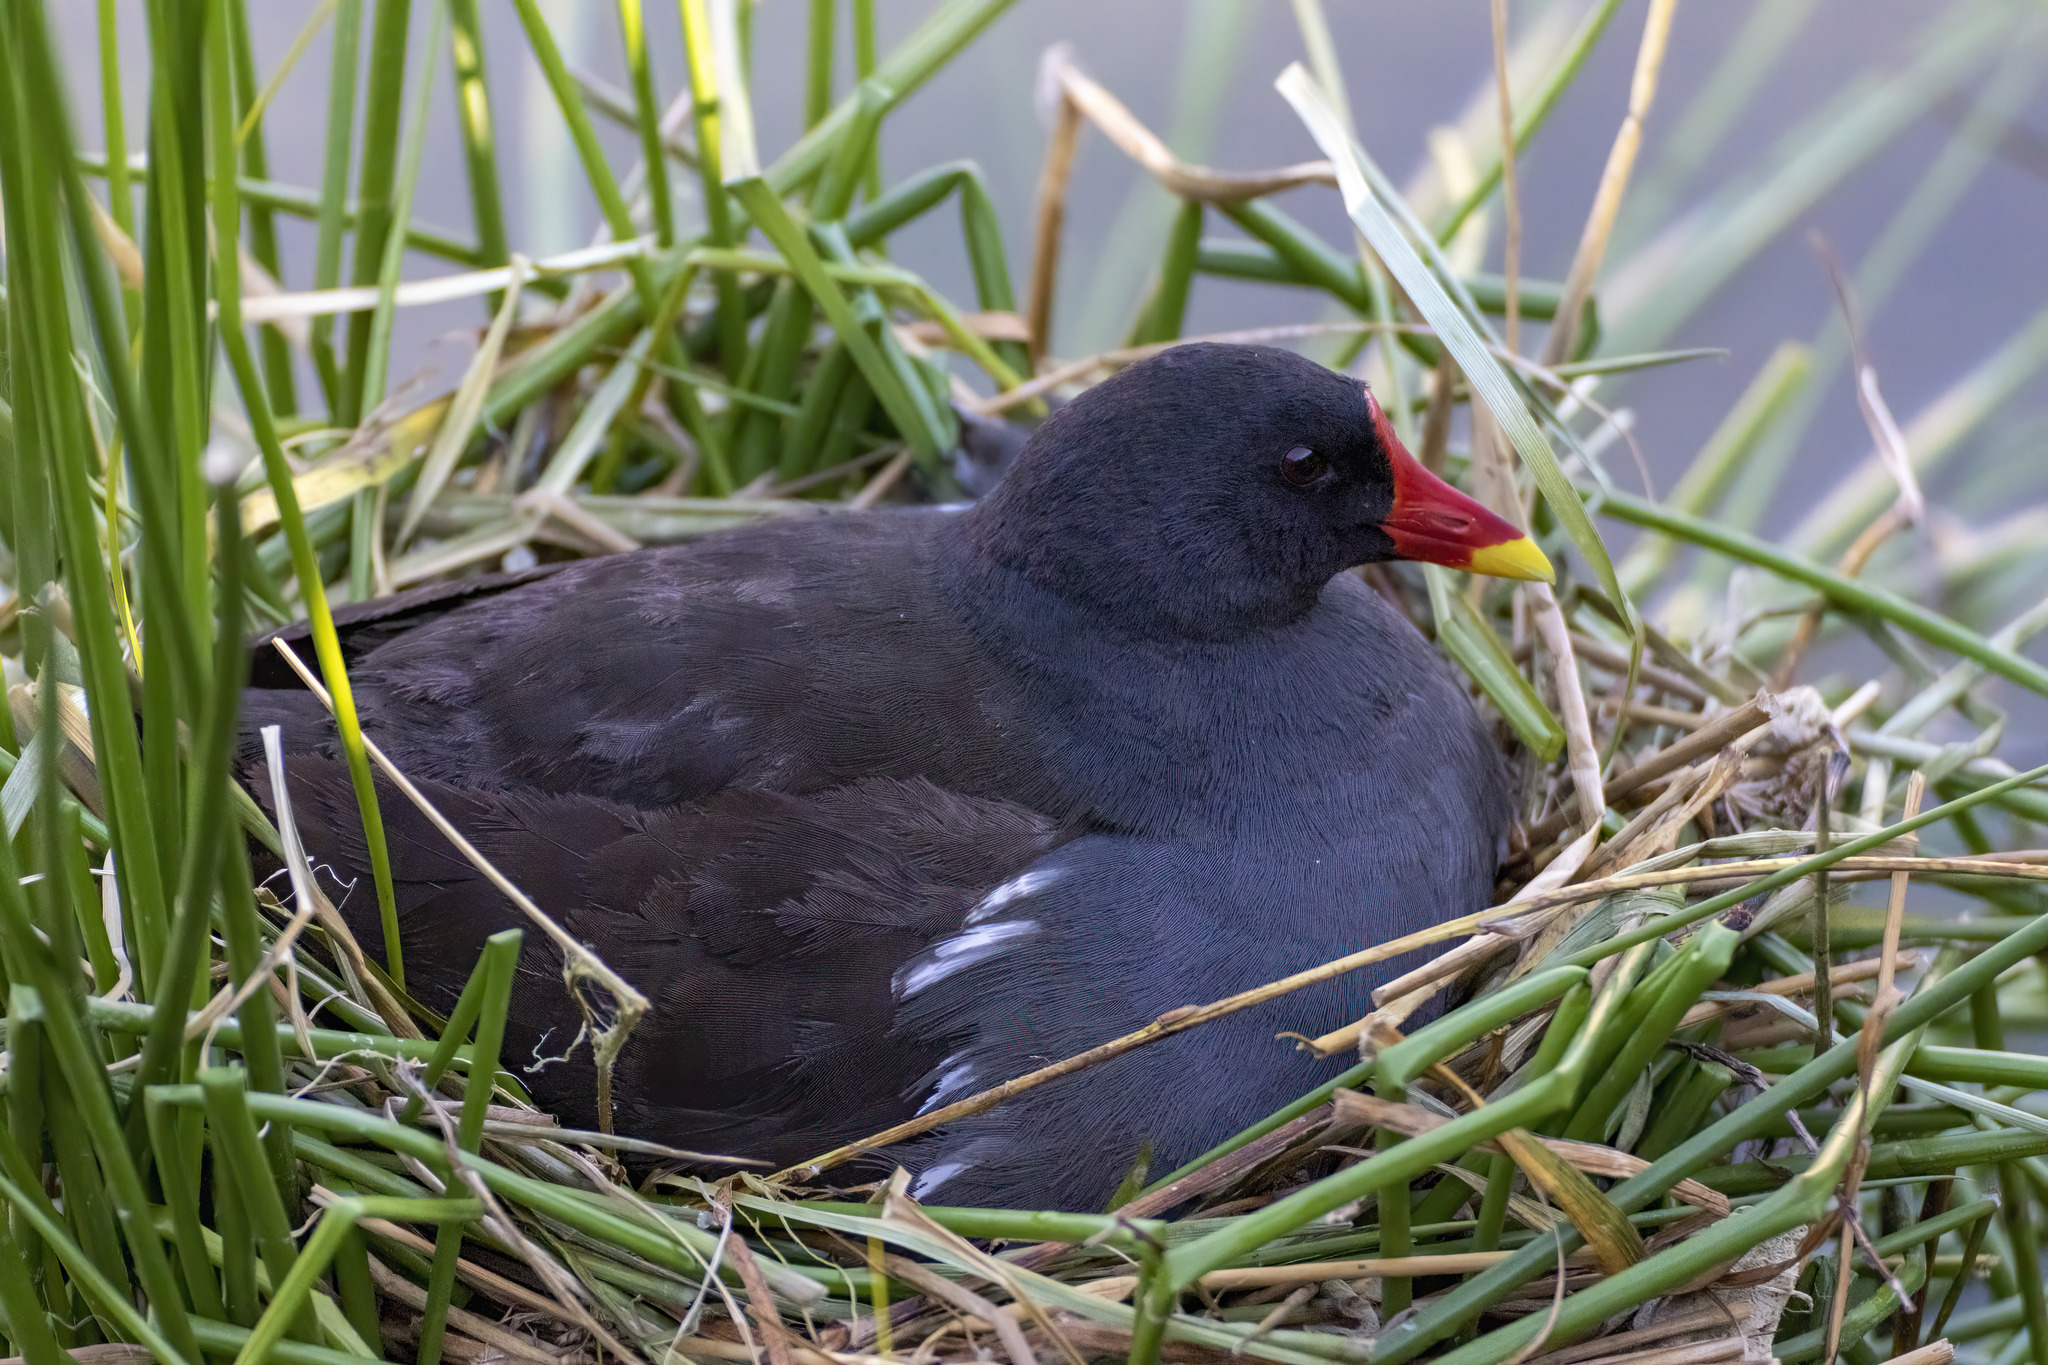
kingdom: Animalia
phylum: Chordata
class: Aves
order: Gruiformes
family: Rallidae
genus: Gallinula
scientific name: Gallinula chloropus
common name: Common moorhen
